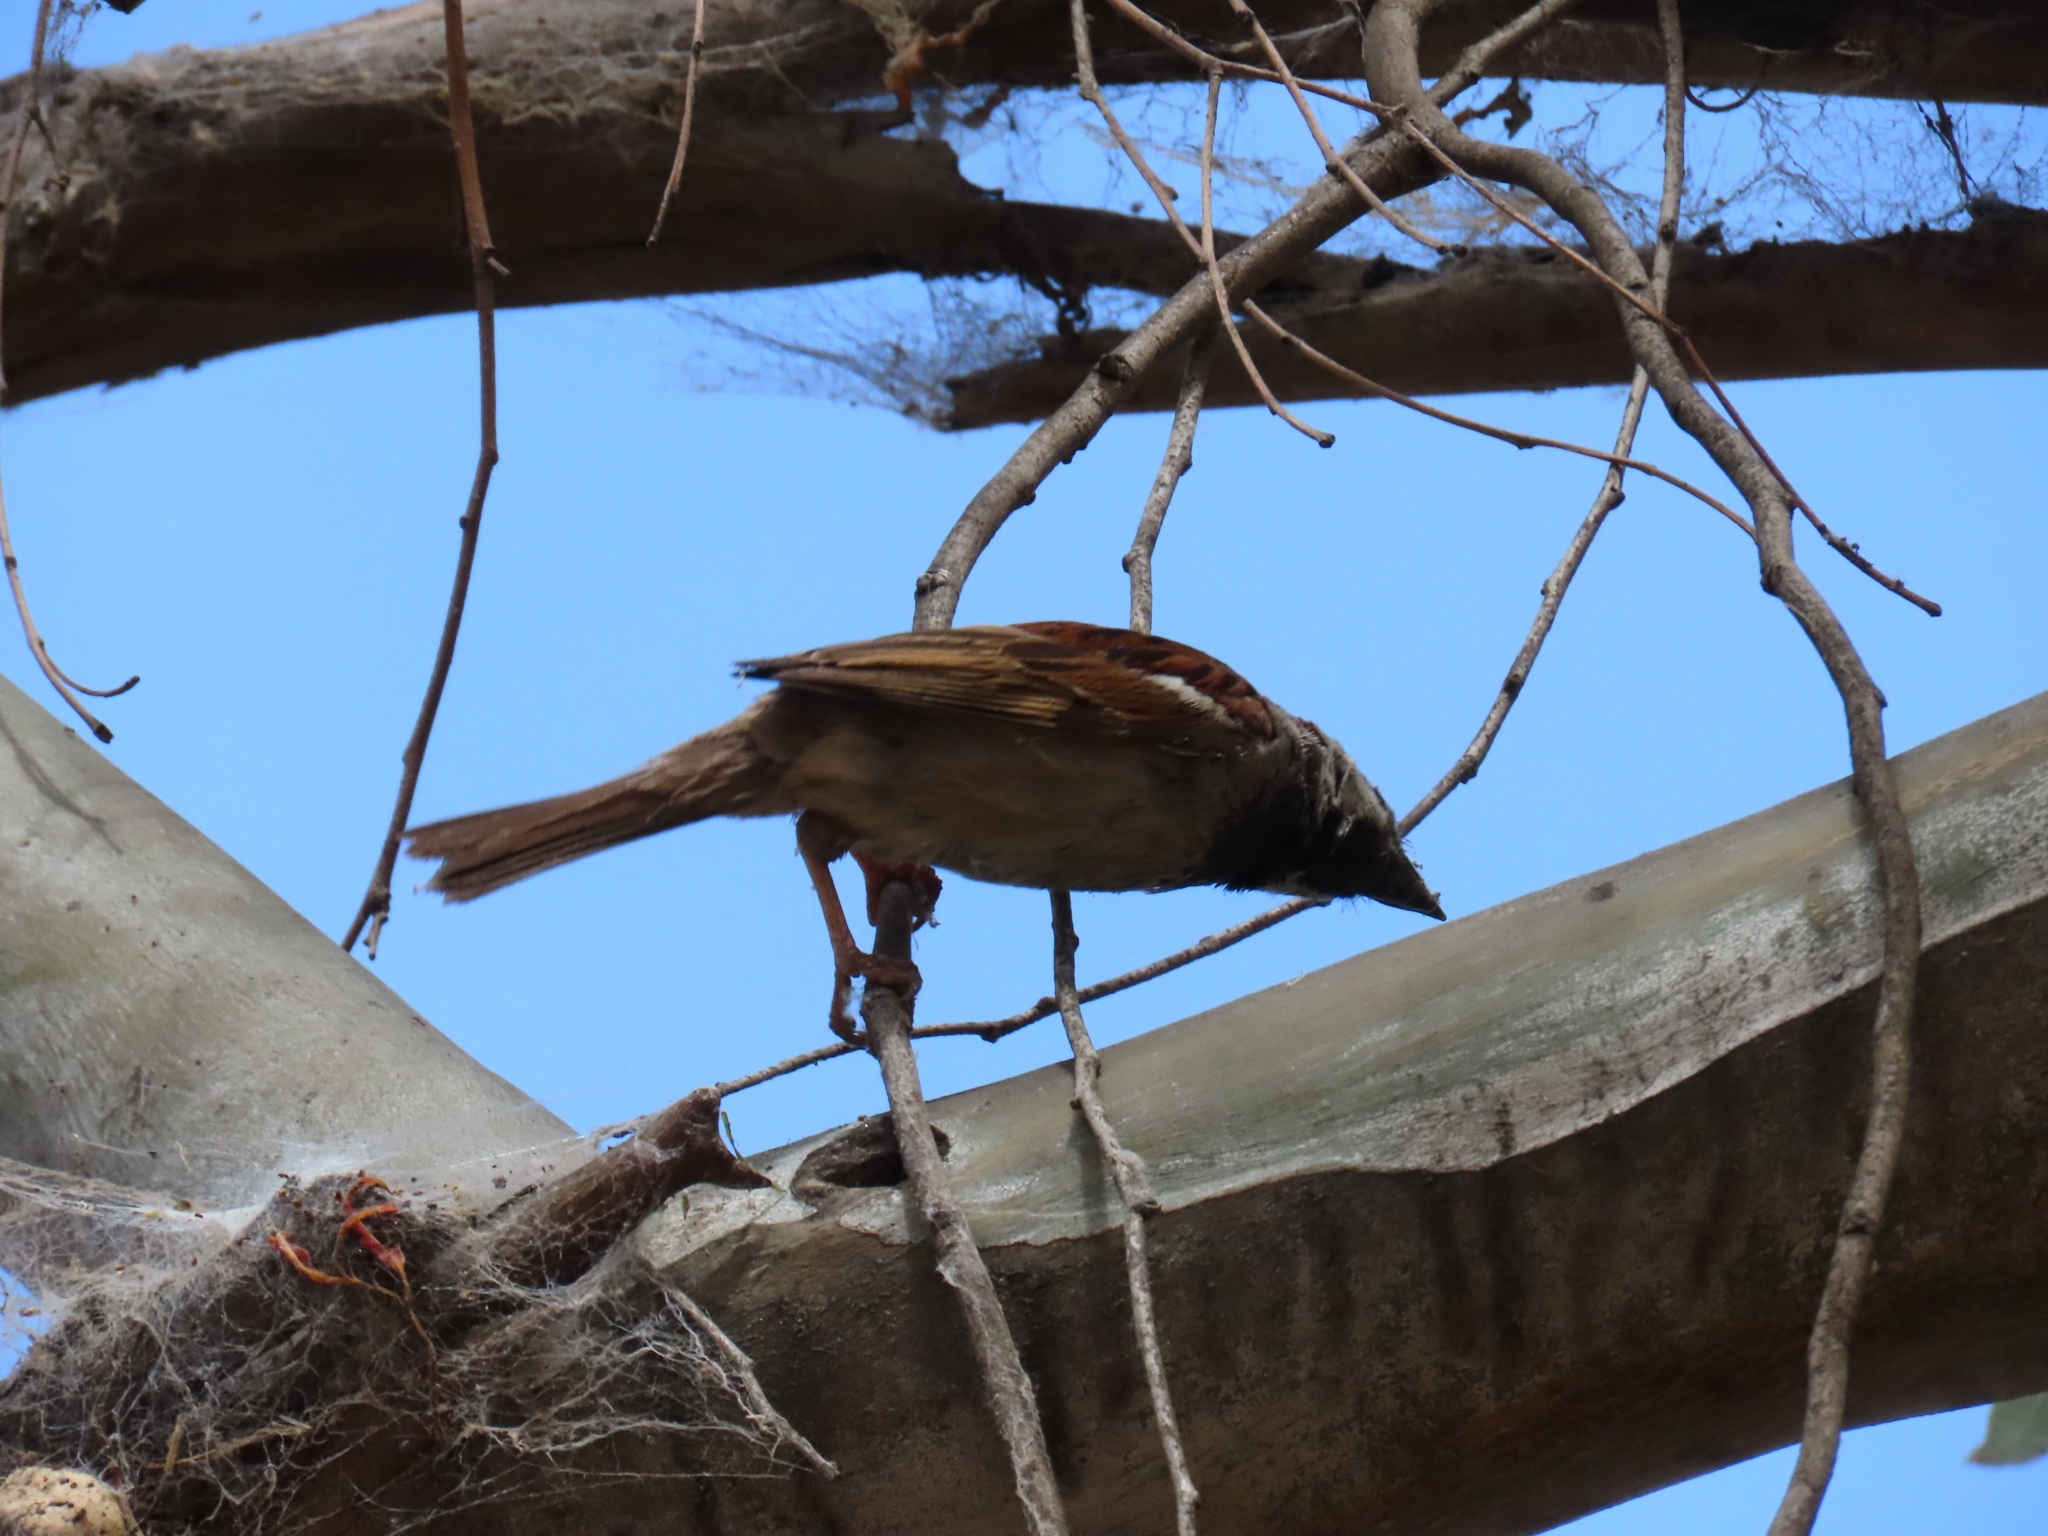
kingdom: Animalia
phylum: Chordata
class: Aves
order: Passeriformes
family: Passeridae
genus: Passer
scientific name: Passer domesticus
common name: House sparrow
